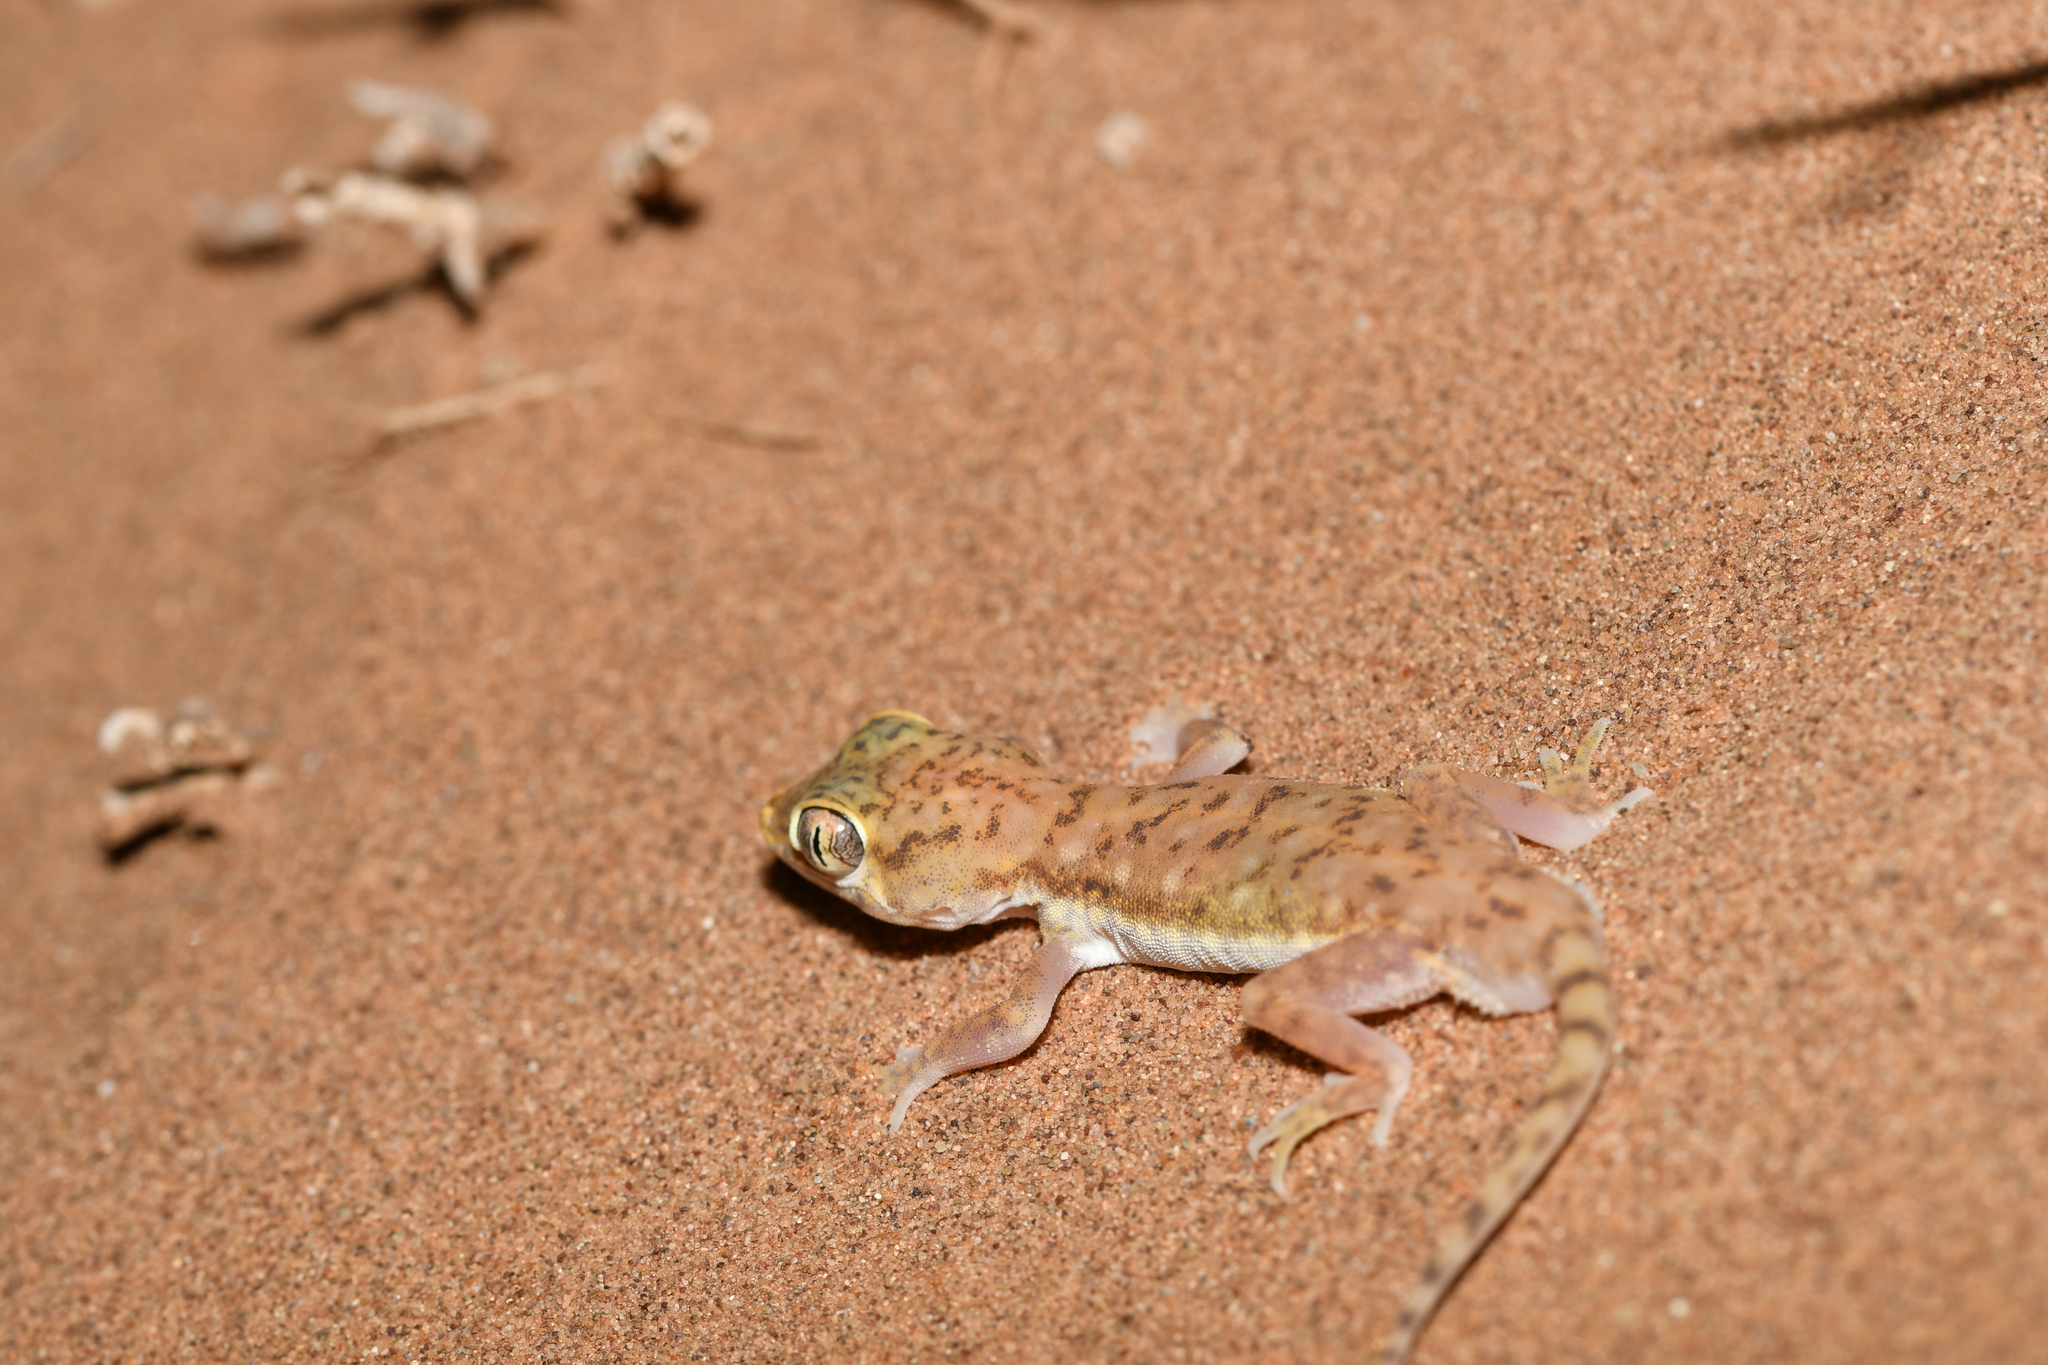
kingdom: Animalia
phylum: Chordata
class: Squamata
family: Gekkonidae
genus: Stenodactylus
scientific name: Stenodactylus petrii
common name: Anderson's short-fingered gecko
